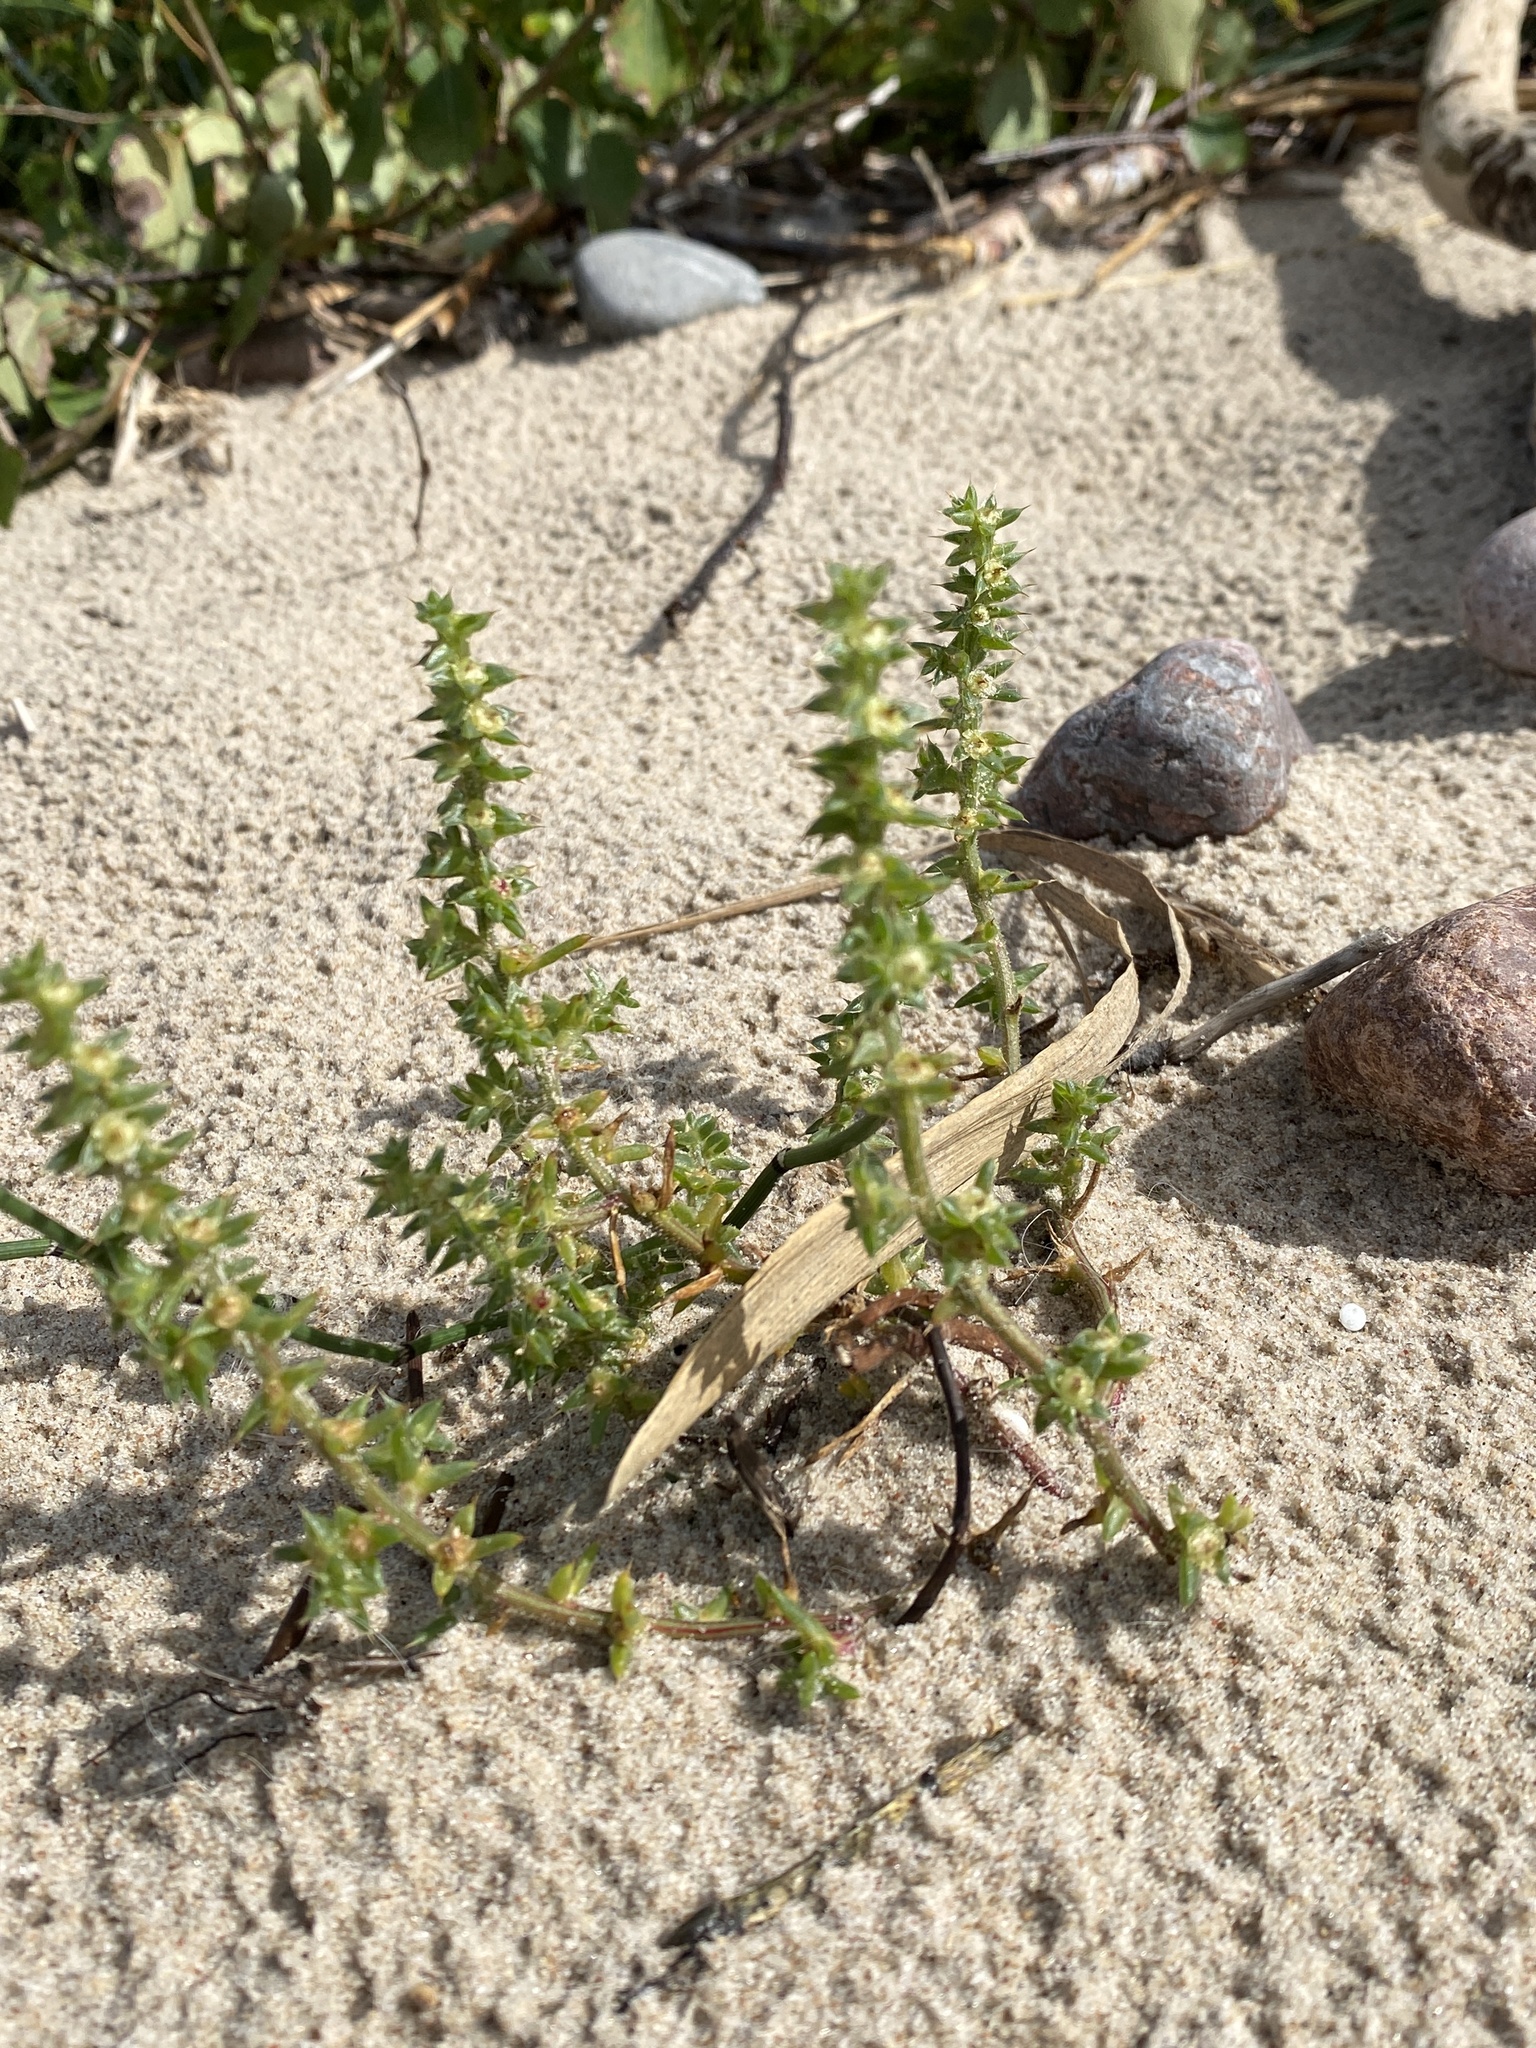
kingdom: Plantae
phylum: Tracheophyta
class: Magnoliopsida
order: Caryophyllales
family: Amaranthaceae
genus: Salsola
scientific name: Salsola kali
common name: Saltwort
